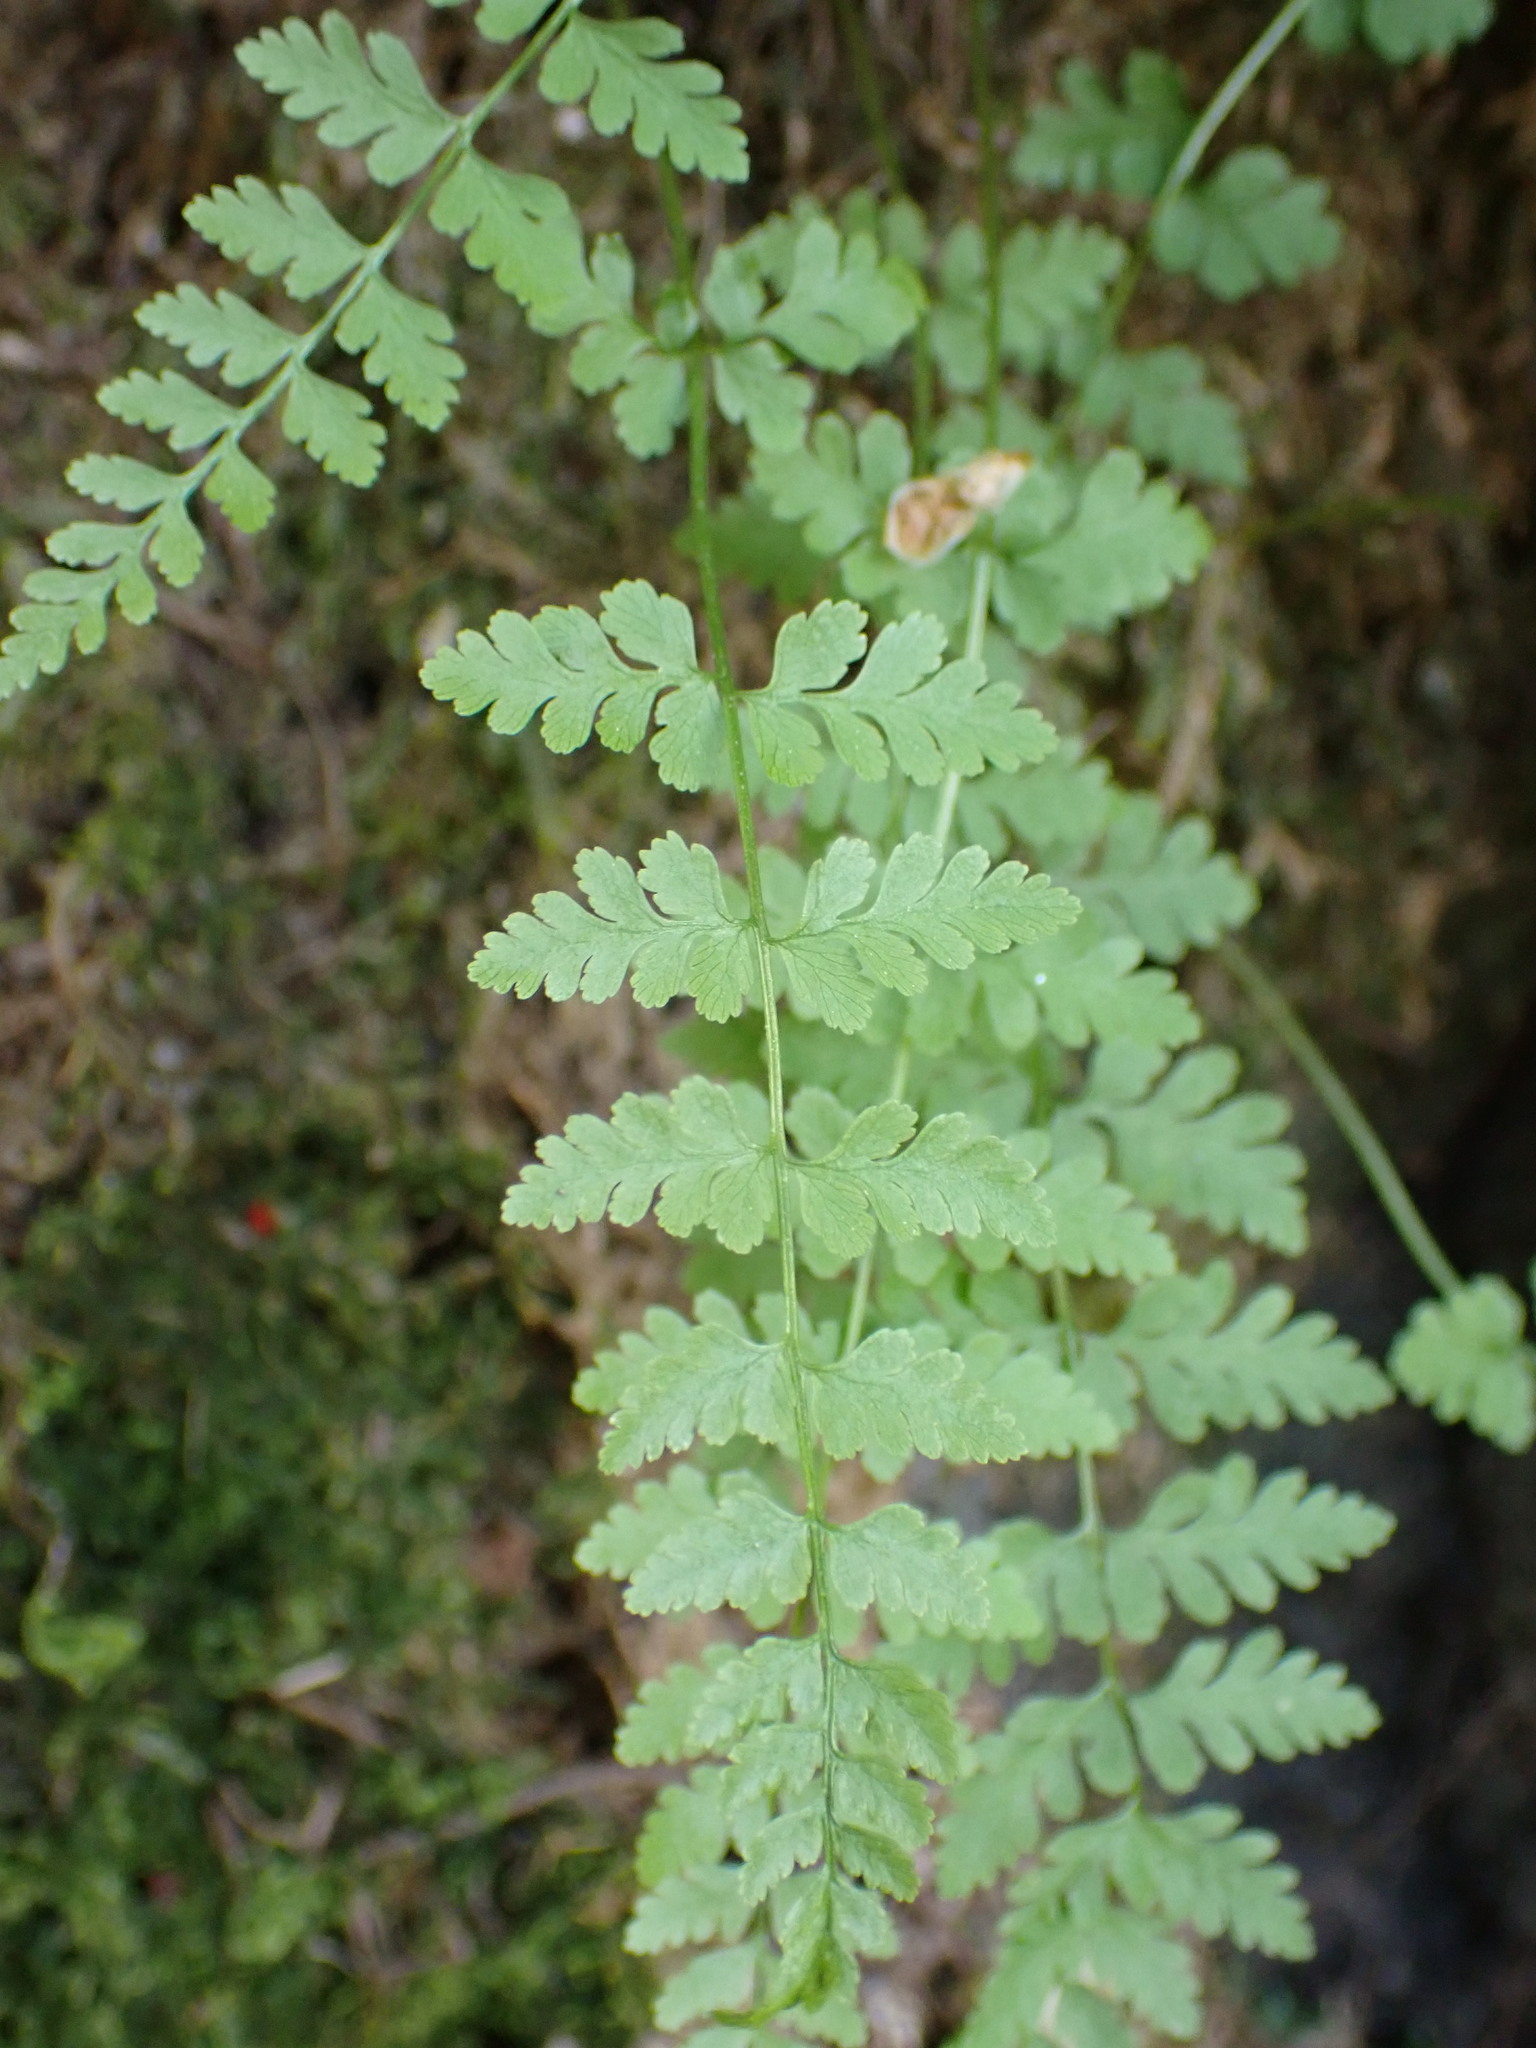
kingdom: Plantae
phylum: Tracheophyta
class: Polypodiopsida
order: Polypodiales
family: Cystopteridaceae
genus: Cystopteris
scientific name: Cystopteris fragilis
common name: Brittle bladder fern
